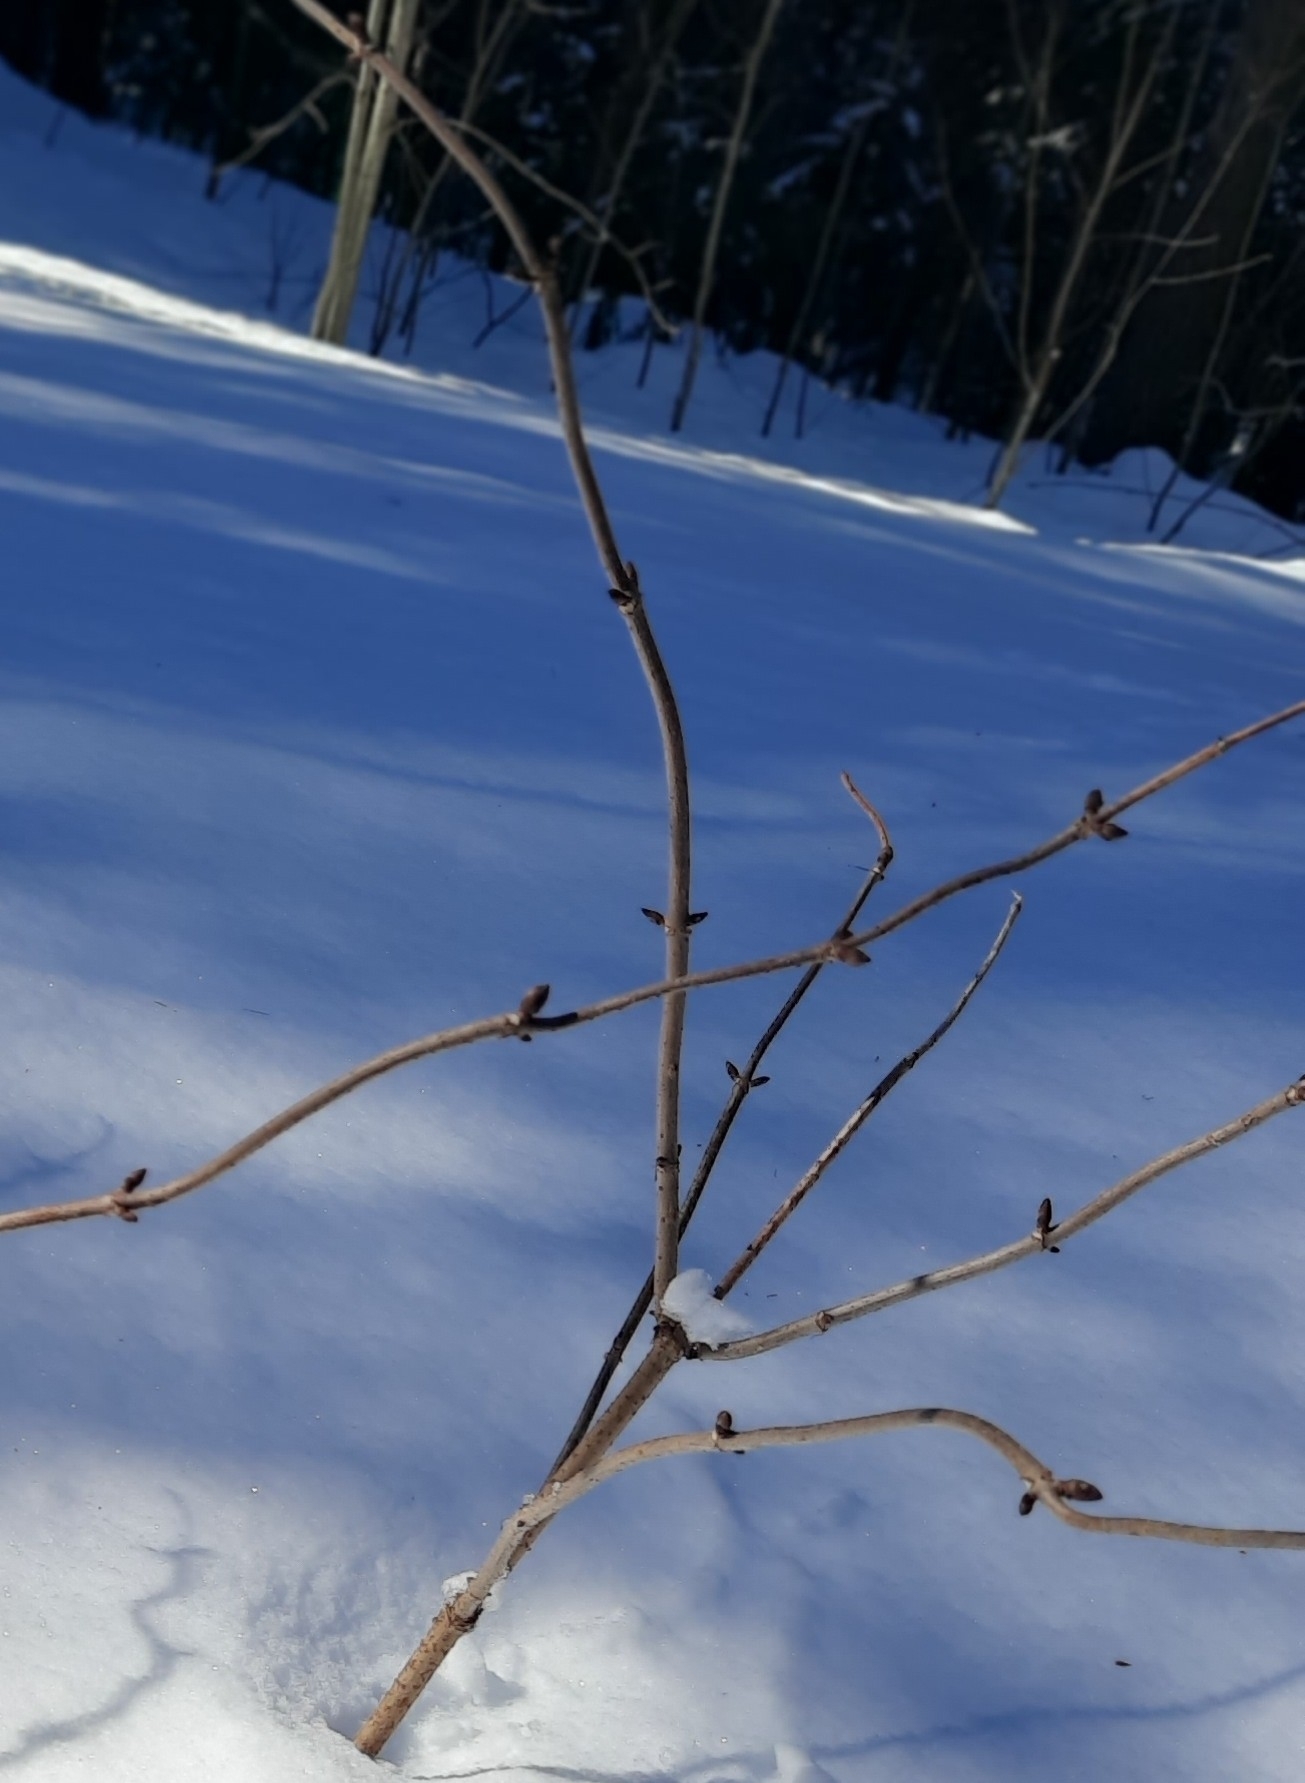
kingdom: Plantae
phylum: Tracheophyta
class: Magnoliopsida
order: Dipsacales
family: Viburnaceae
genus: Sambucus
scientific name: Sambucus sibirica
